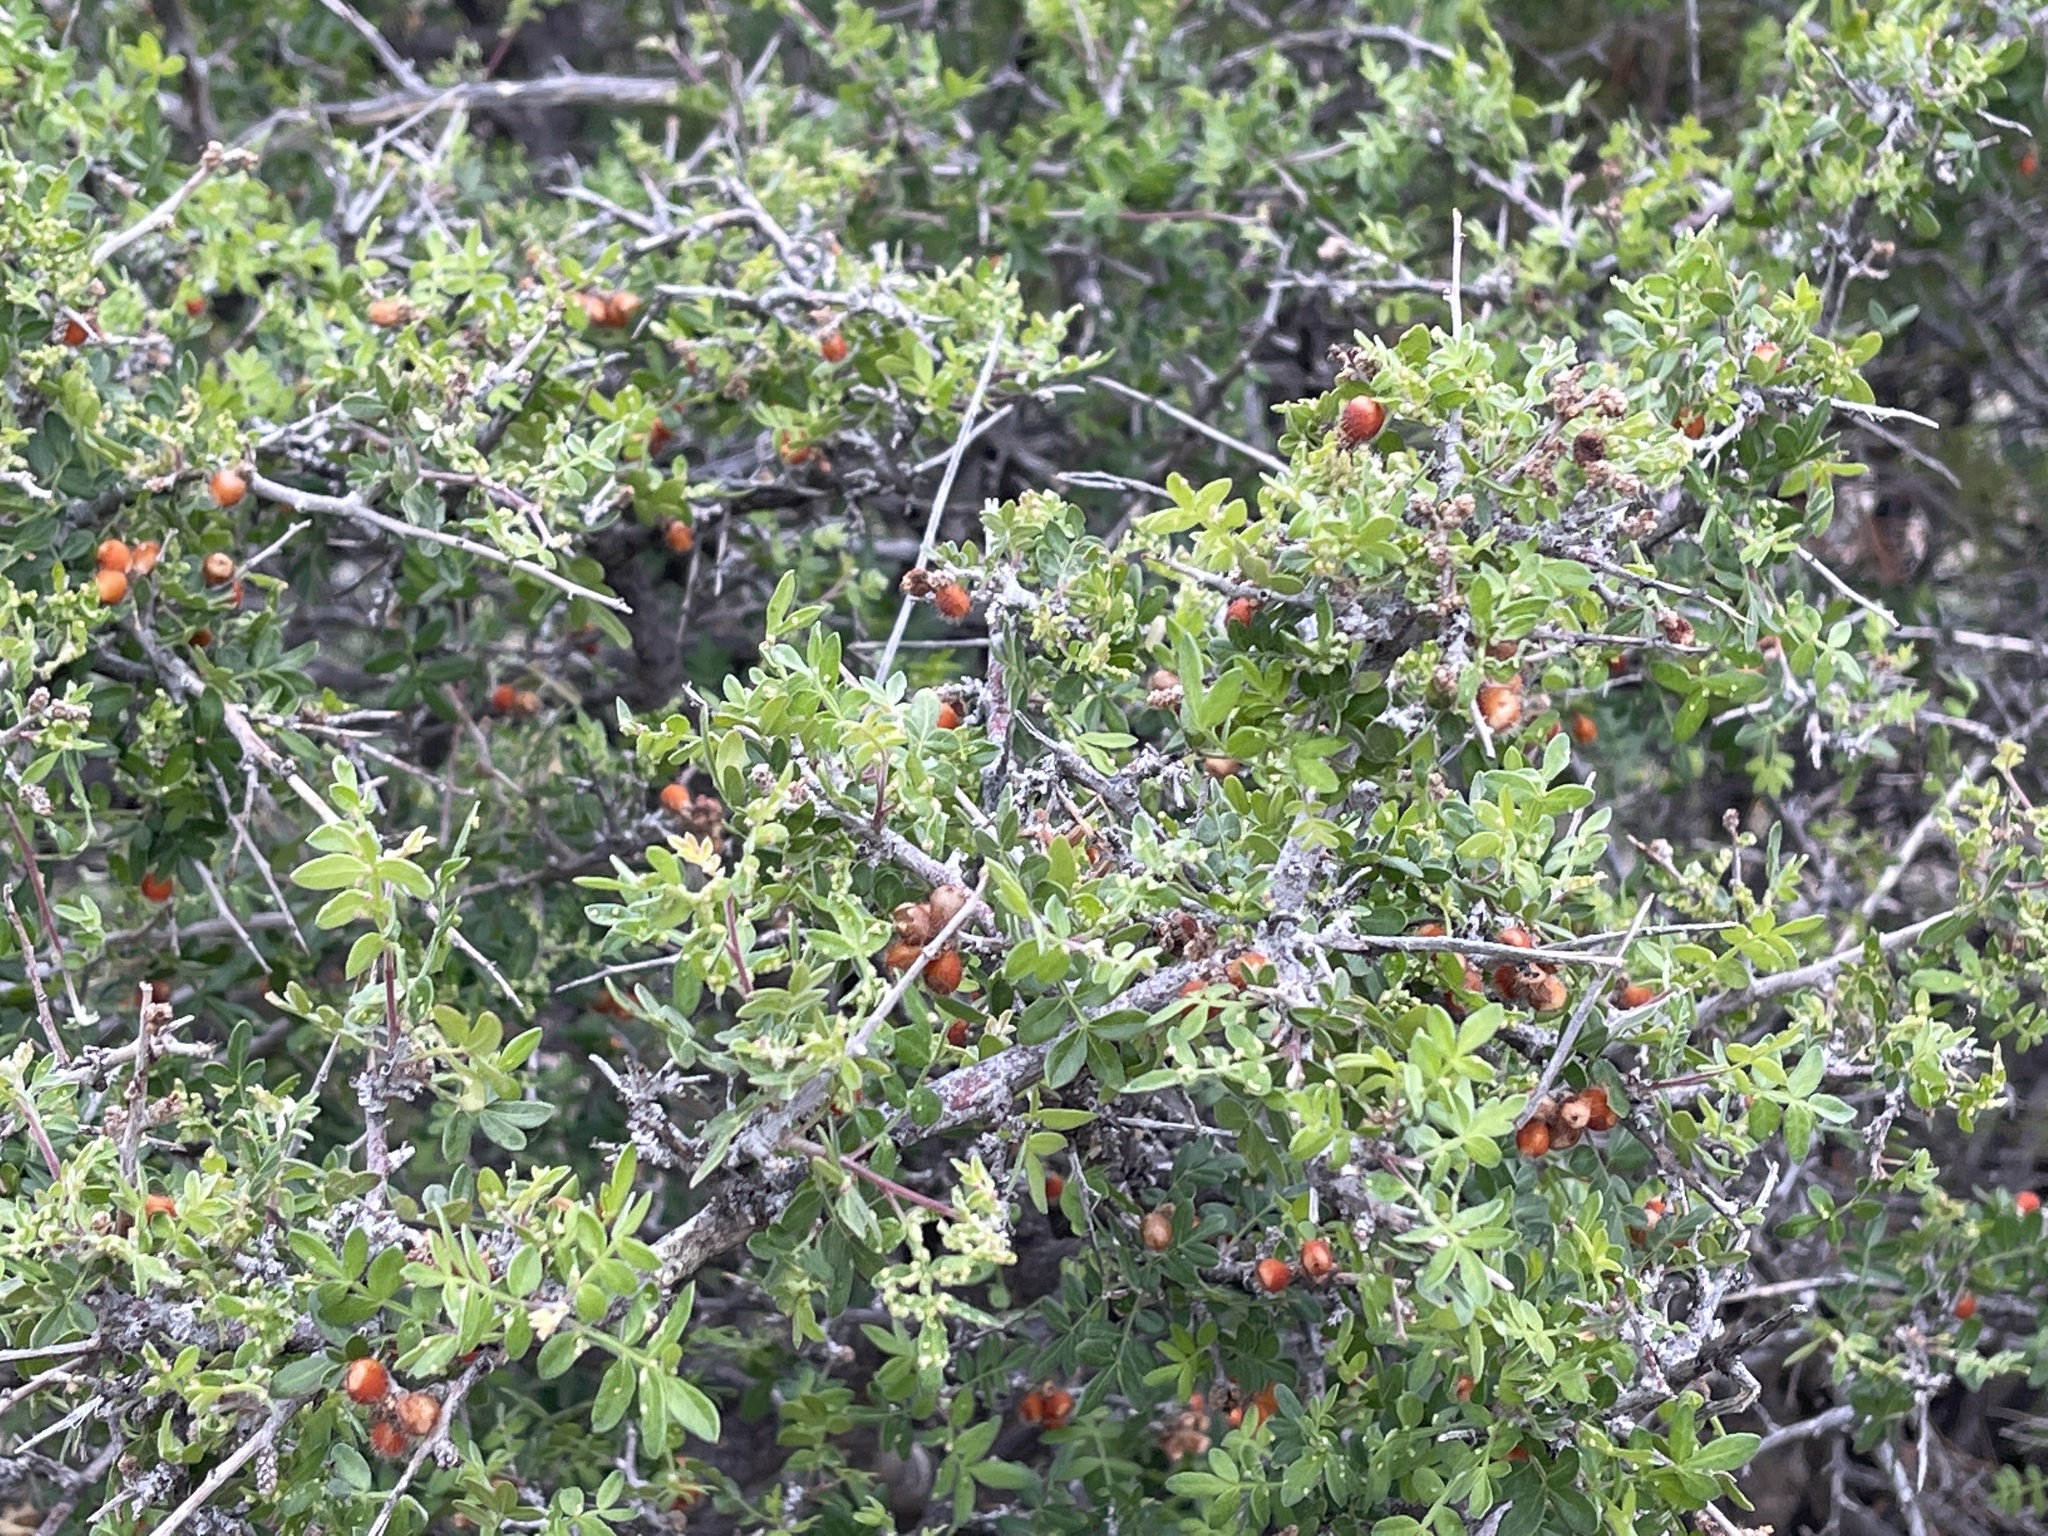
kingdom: Plantae
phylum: Tracheophyta
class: Magnoliopsida
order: Sapindales
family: Anacardiaceae
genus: Rhus
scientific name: Rhus microphylla
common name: Desert sumac
